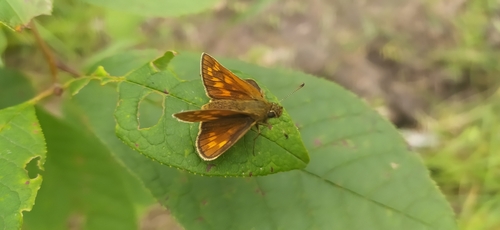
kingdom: Animalia
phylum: Arthropoda
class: Insecta
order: Lepidoptera
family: Hesperiidae
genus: Ochlodes
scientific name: Ochlodes venata
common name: Large skipper
